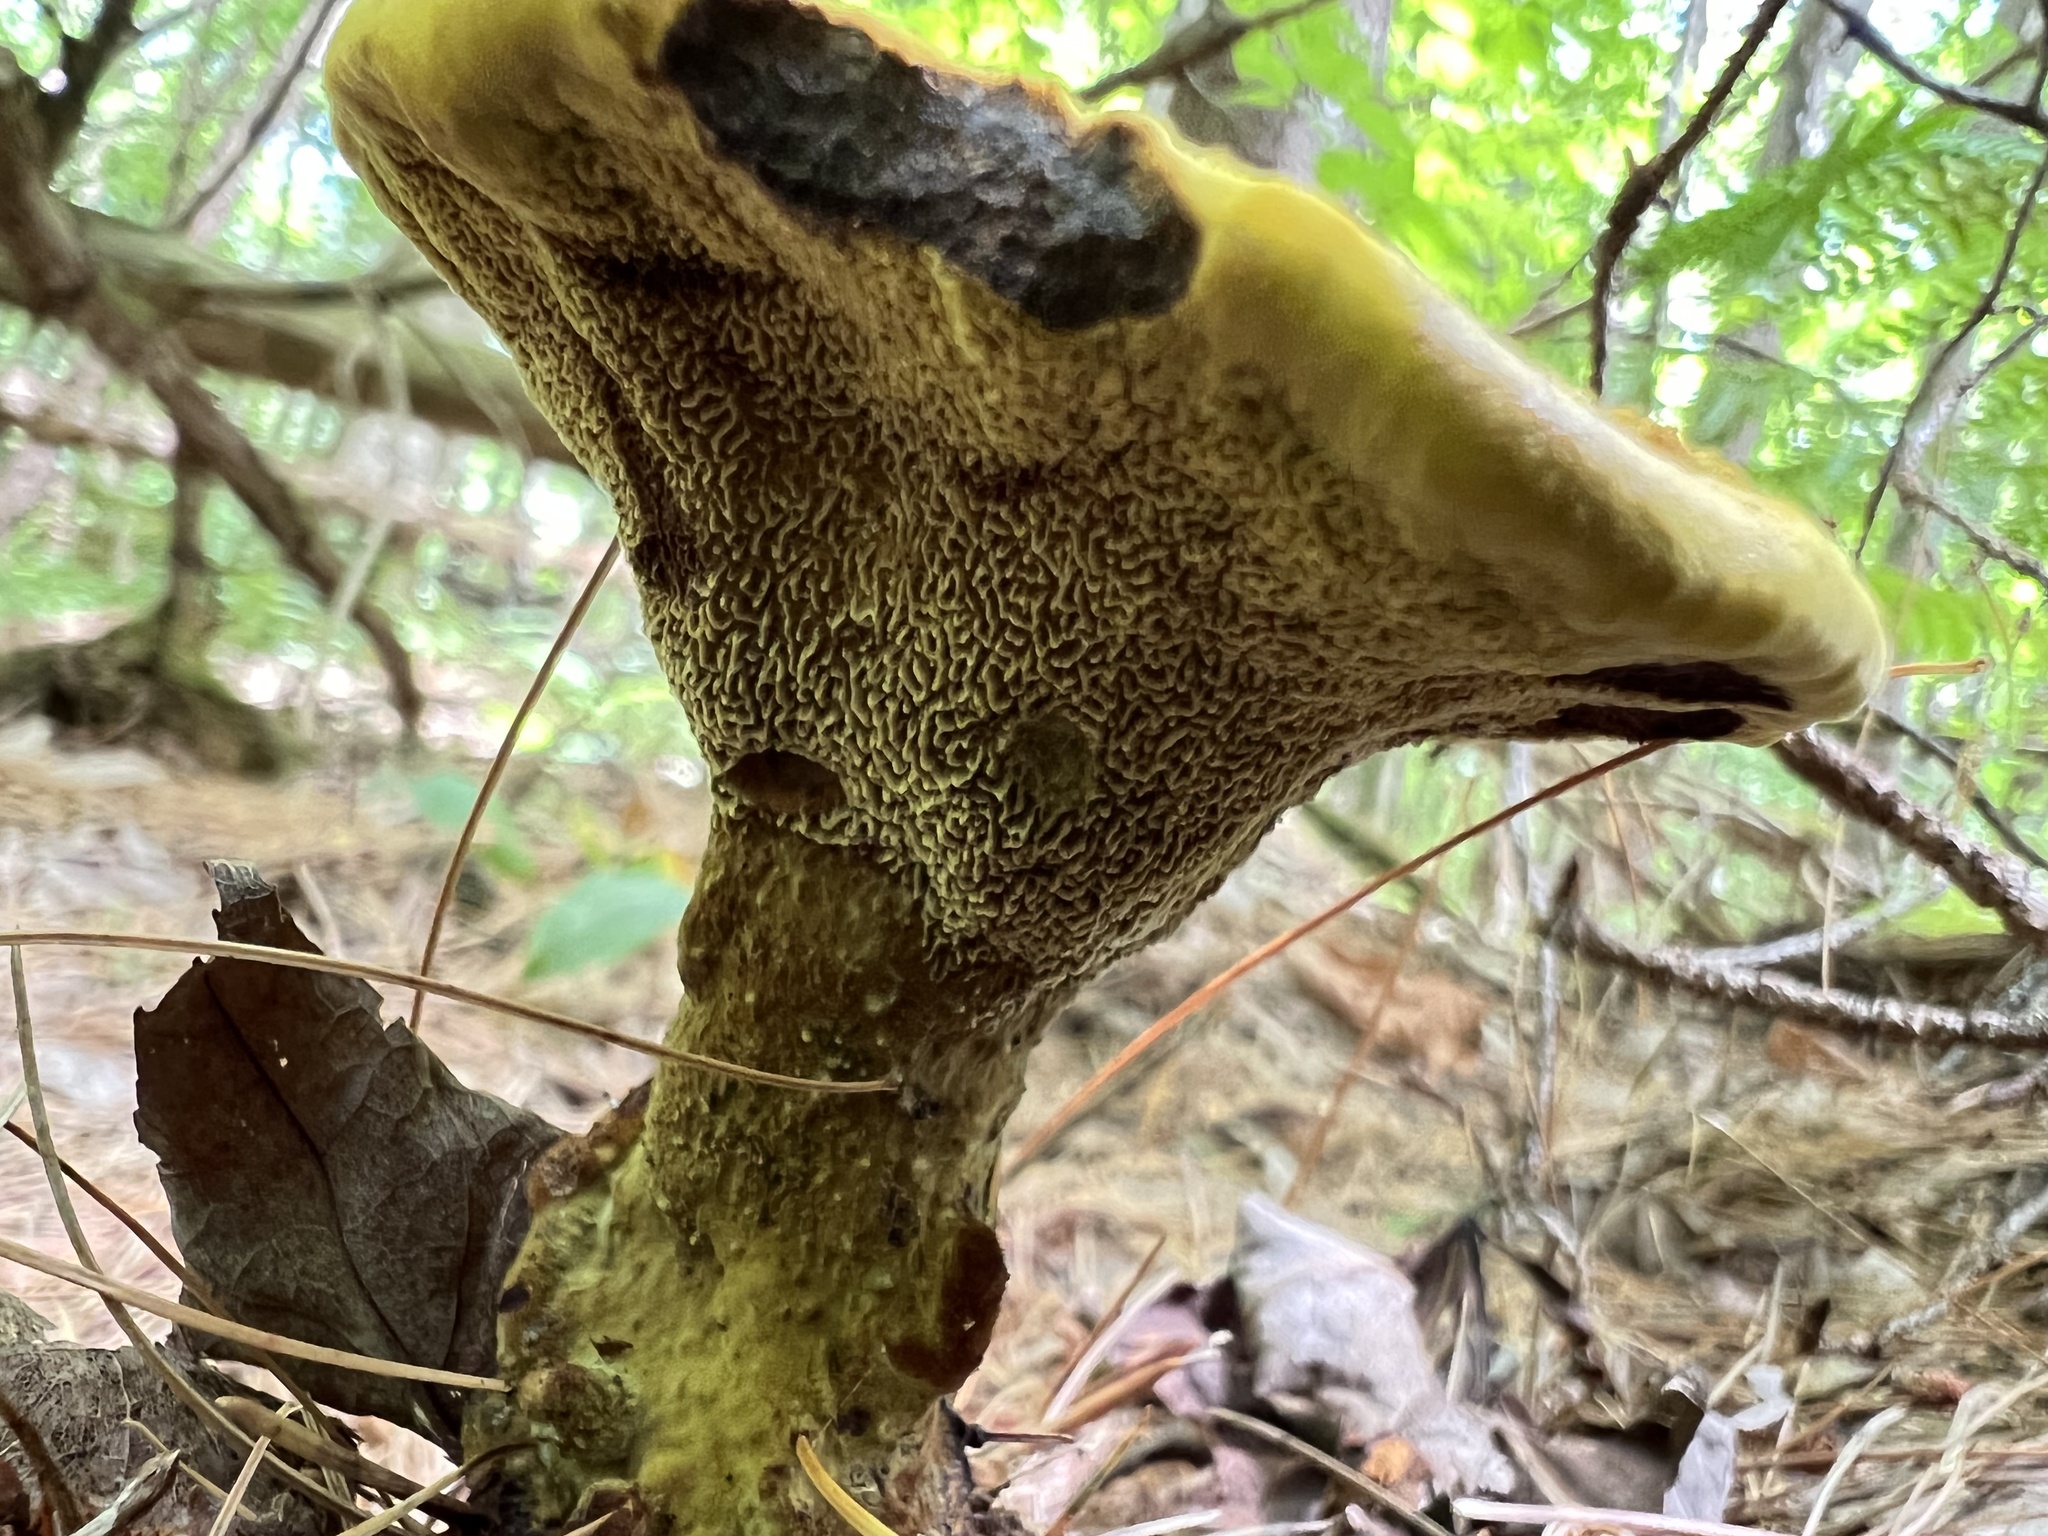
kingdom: Fungi
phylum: Basidiomycota
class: Agaricomycetes
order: Polyporales
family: Laetiporaceae
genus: Phaeolus
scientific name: Phaeolus schweinitzii
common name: Dyer's mazegill
